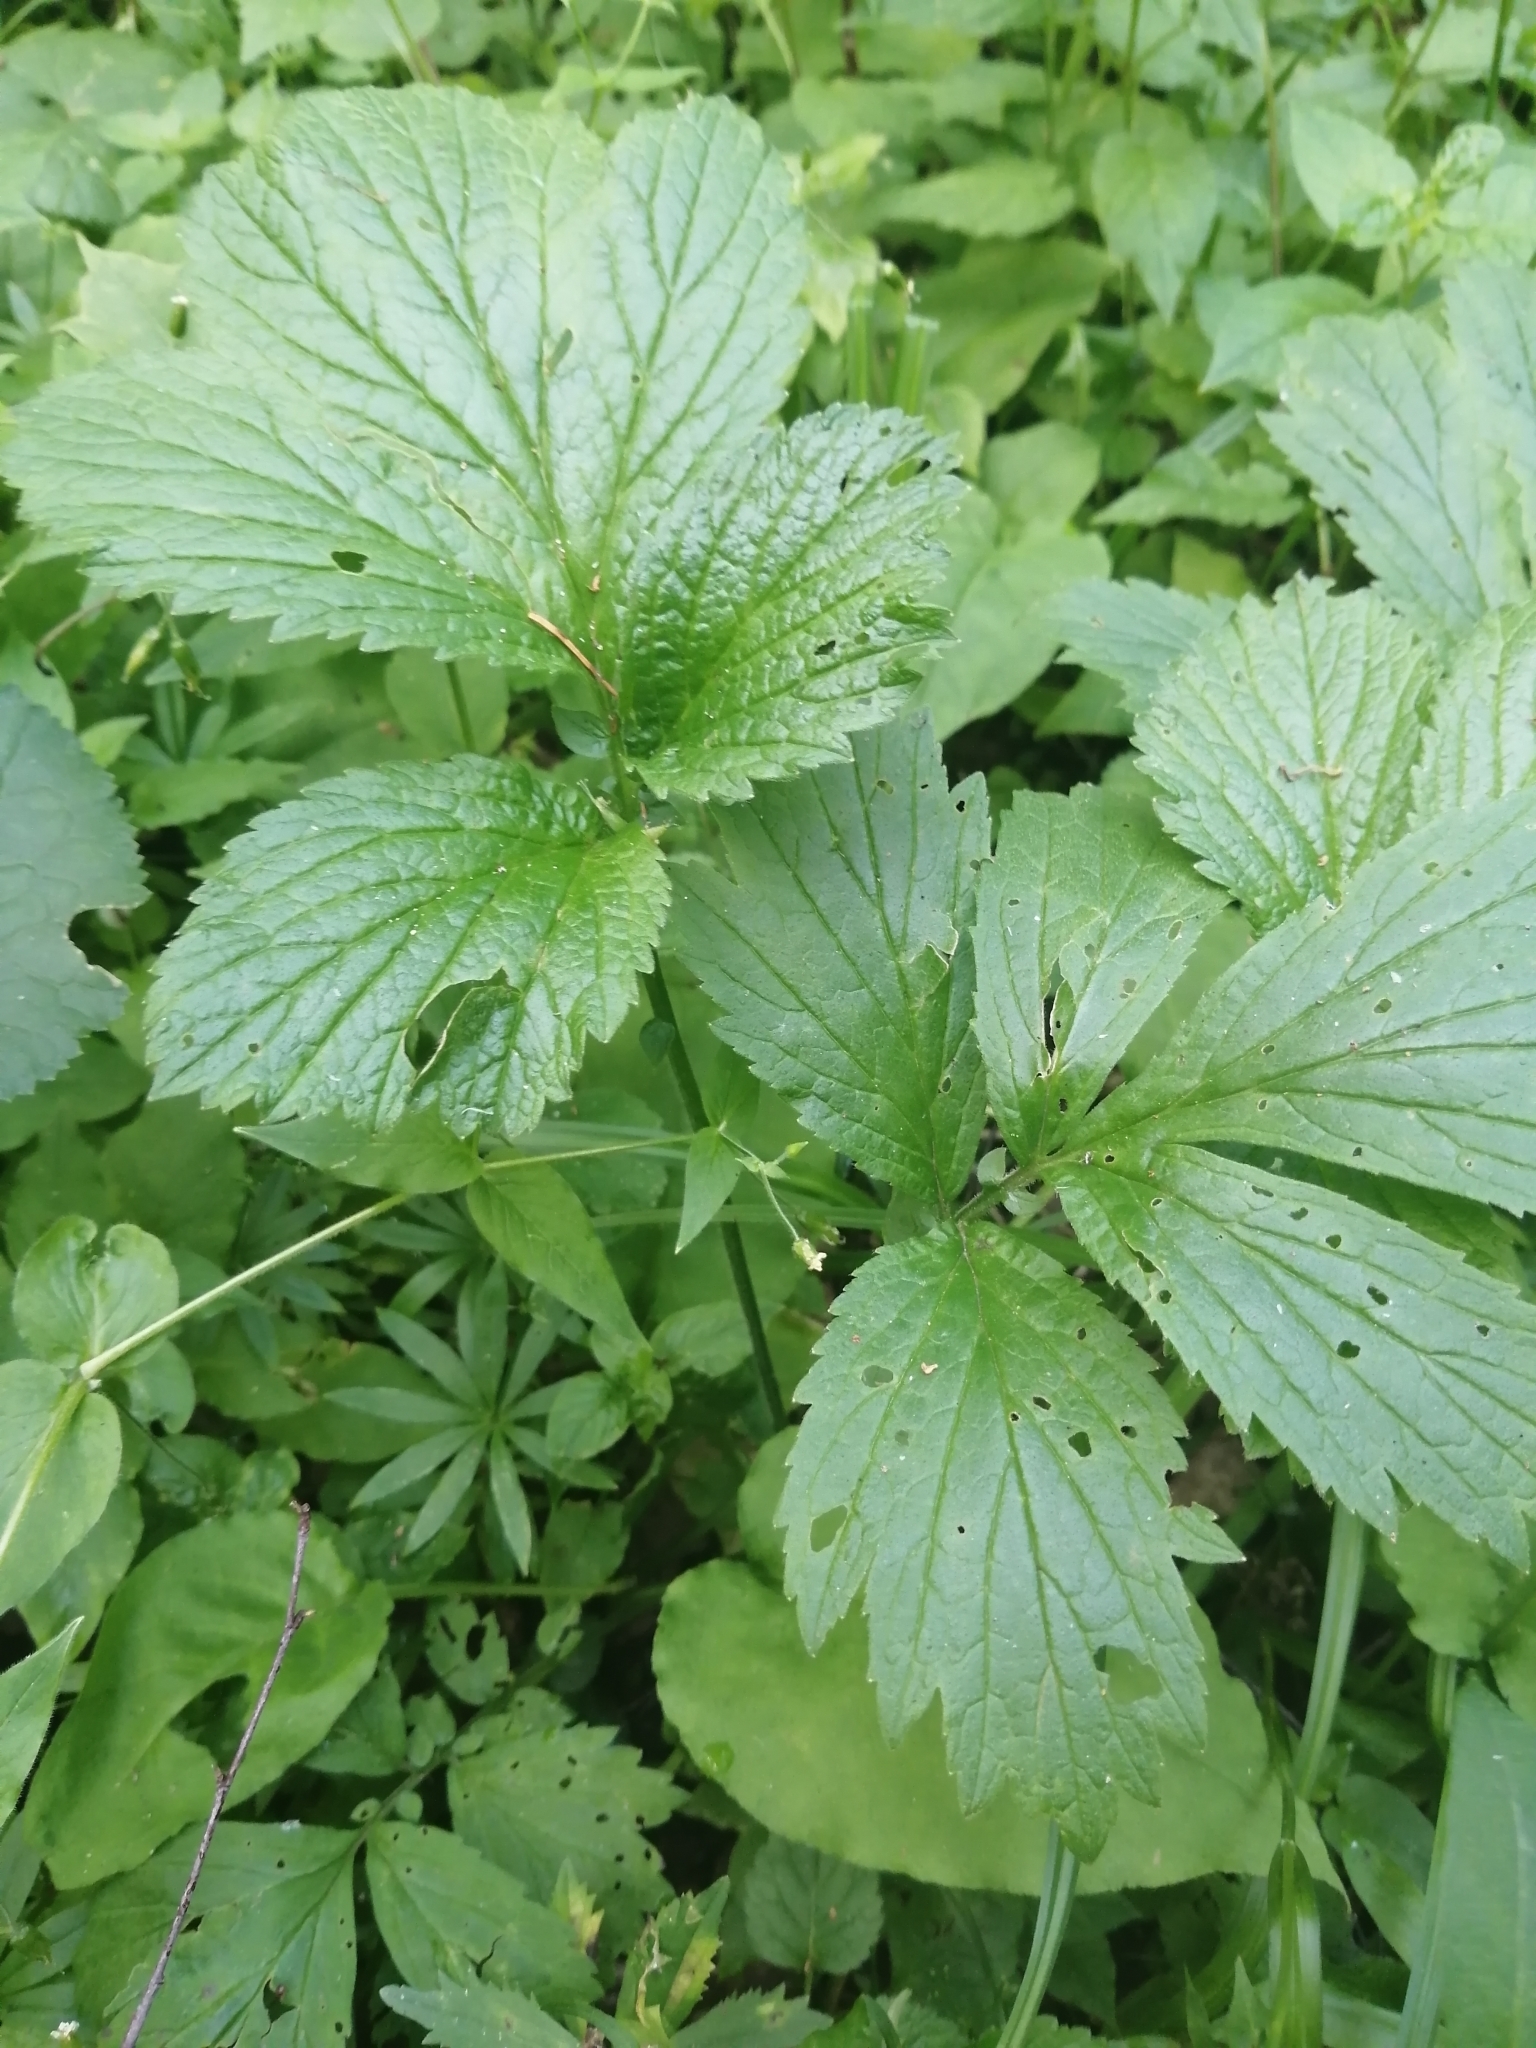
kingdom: Plantae
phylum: Tracheophyta
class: Magnoliopsida
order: Rosales
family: Rosaceae
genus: Geum
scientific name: Geum rivale
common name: Water avens
